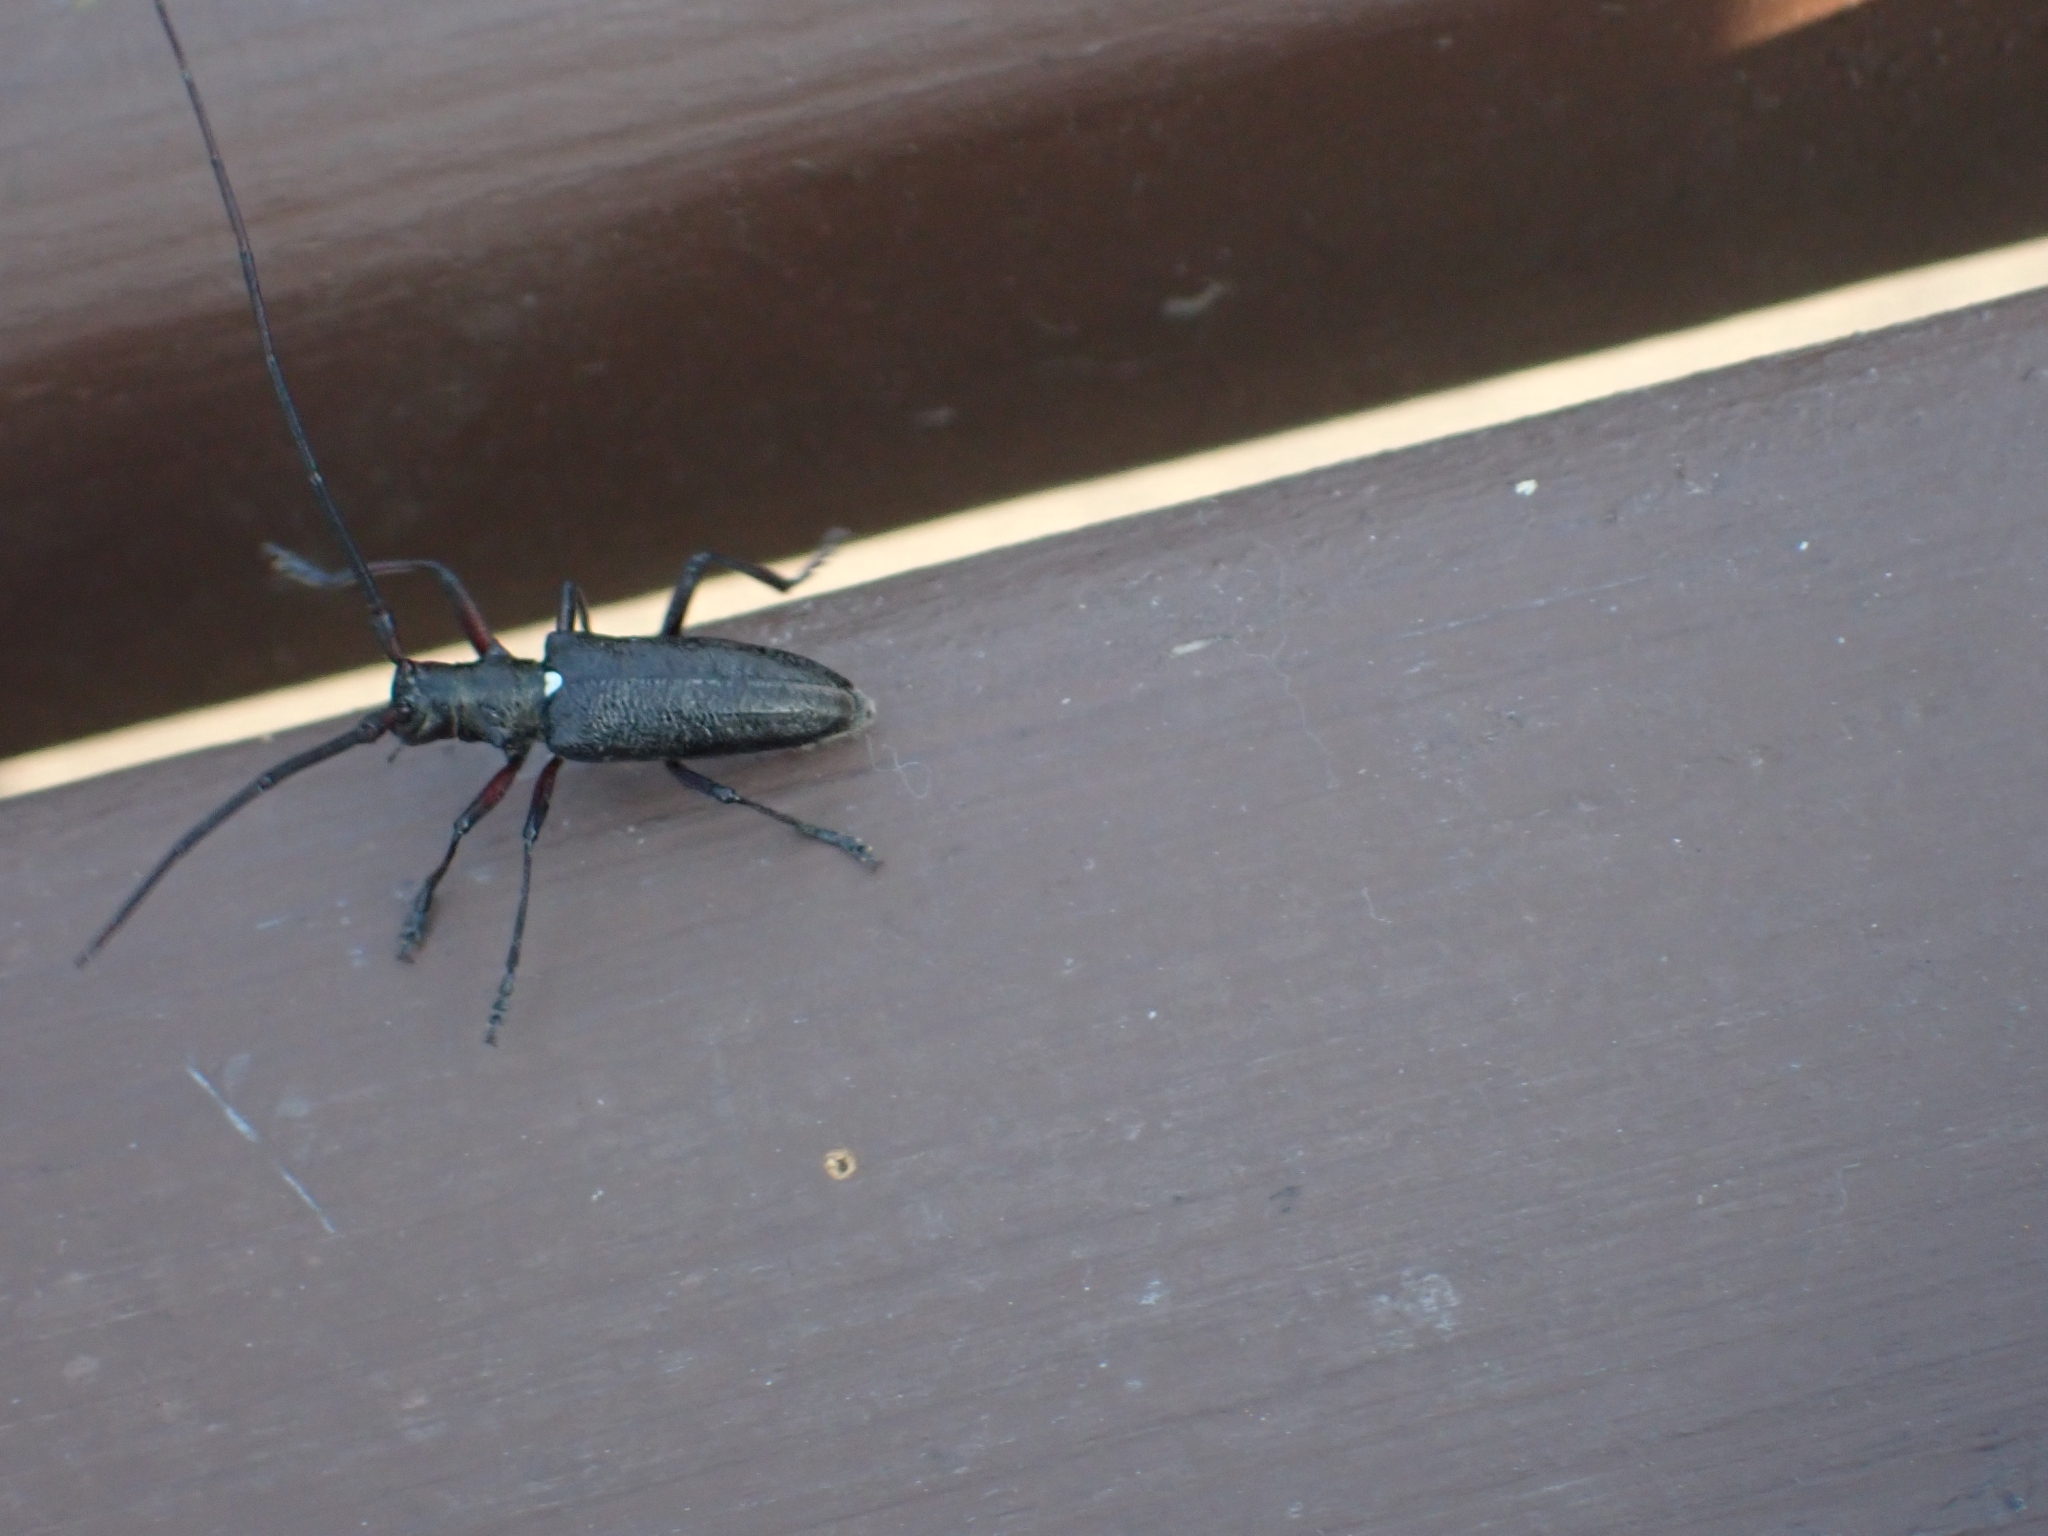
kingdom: Animalia
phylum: Arthropoda
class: Insecta
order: Coleoptera
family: Cerambycidae
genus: Monochamus
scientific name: Monochamus scutellatus
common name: White-spotted sawyer beetle
